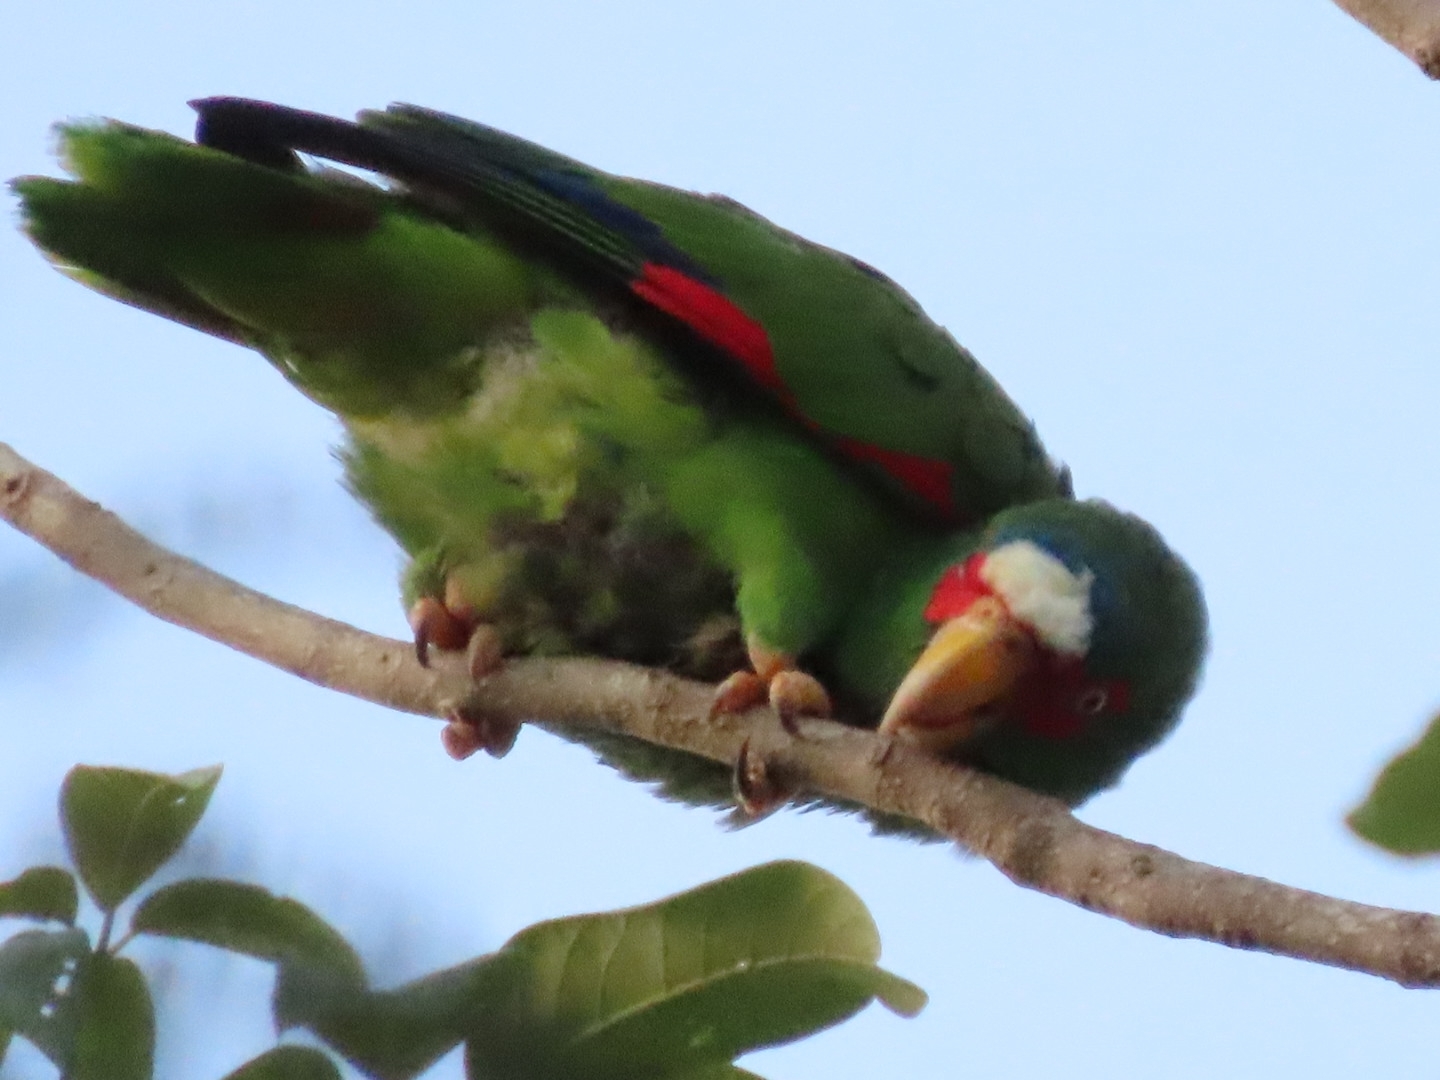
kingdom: Animalia
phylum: Chordata
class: Aves
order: Psittaciformes
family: Psittacidae
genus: Amazona
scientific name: Amazona albifrons
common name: White-fronted amazon
